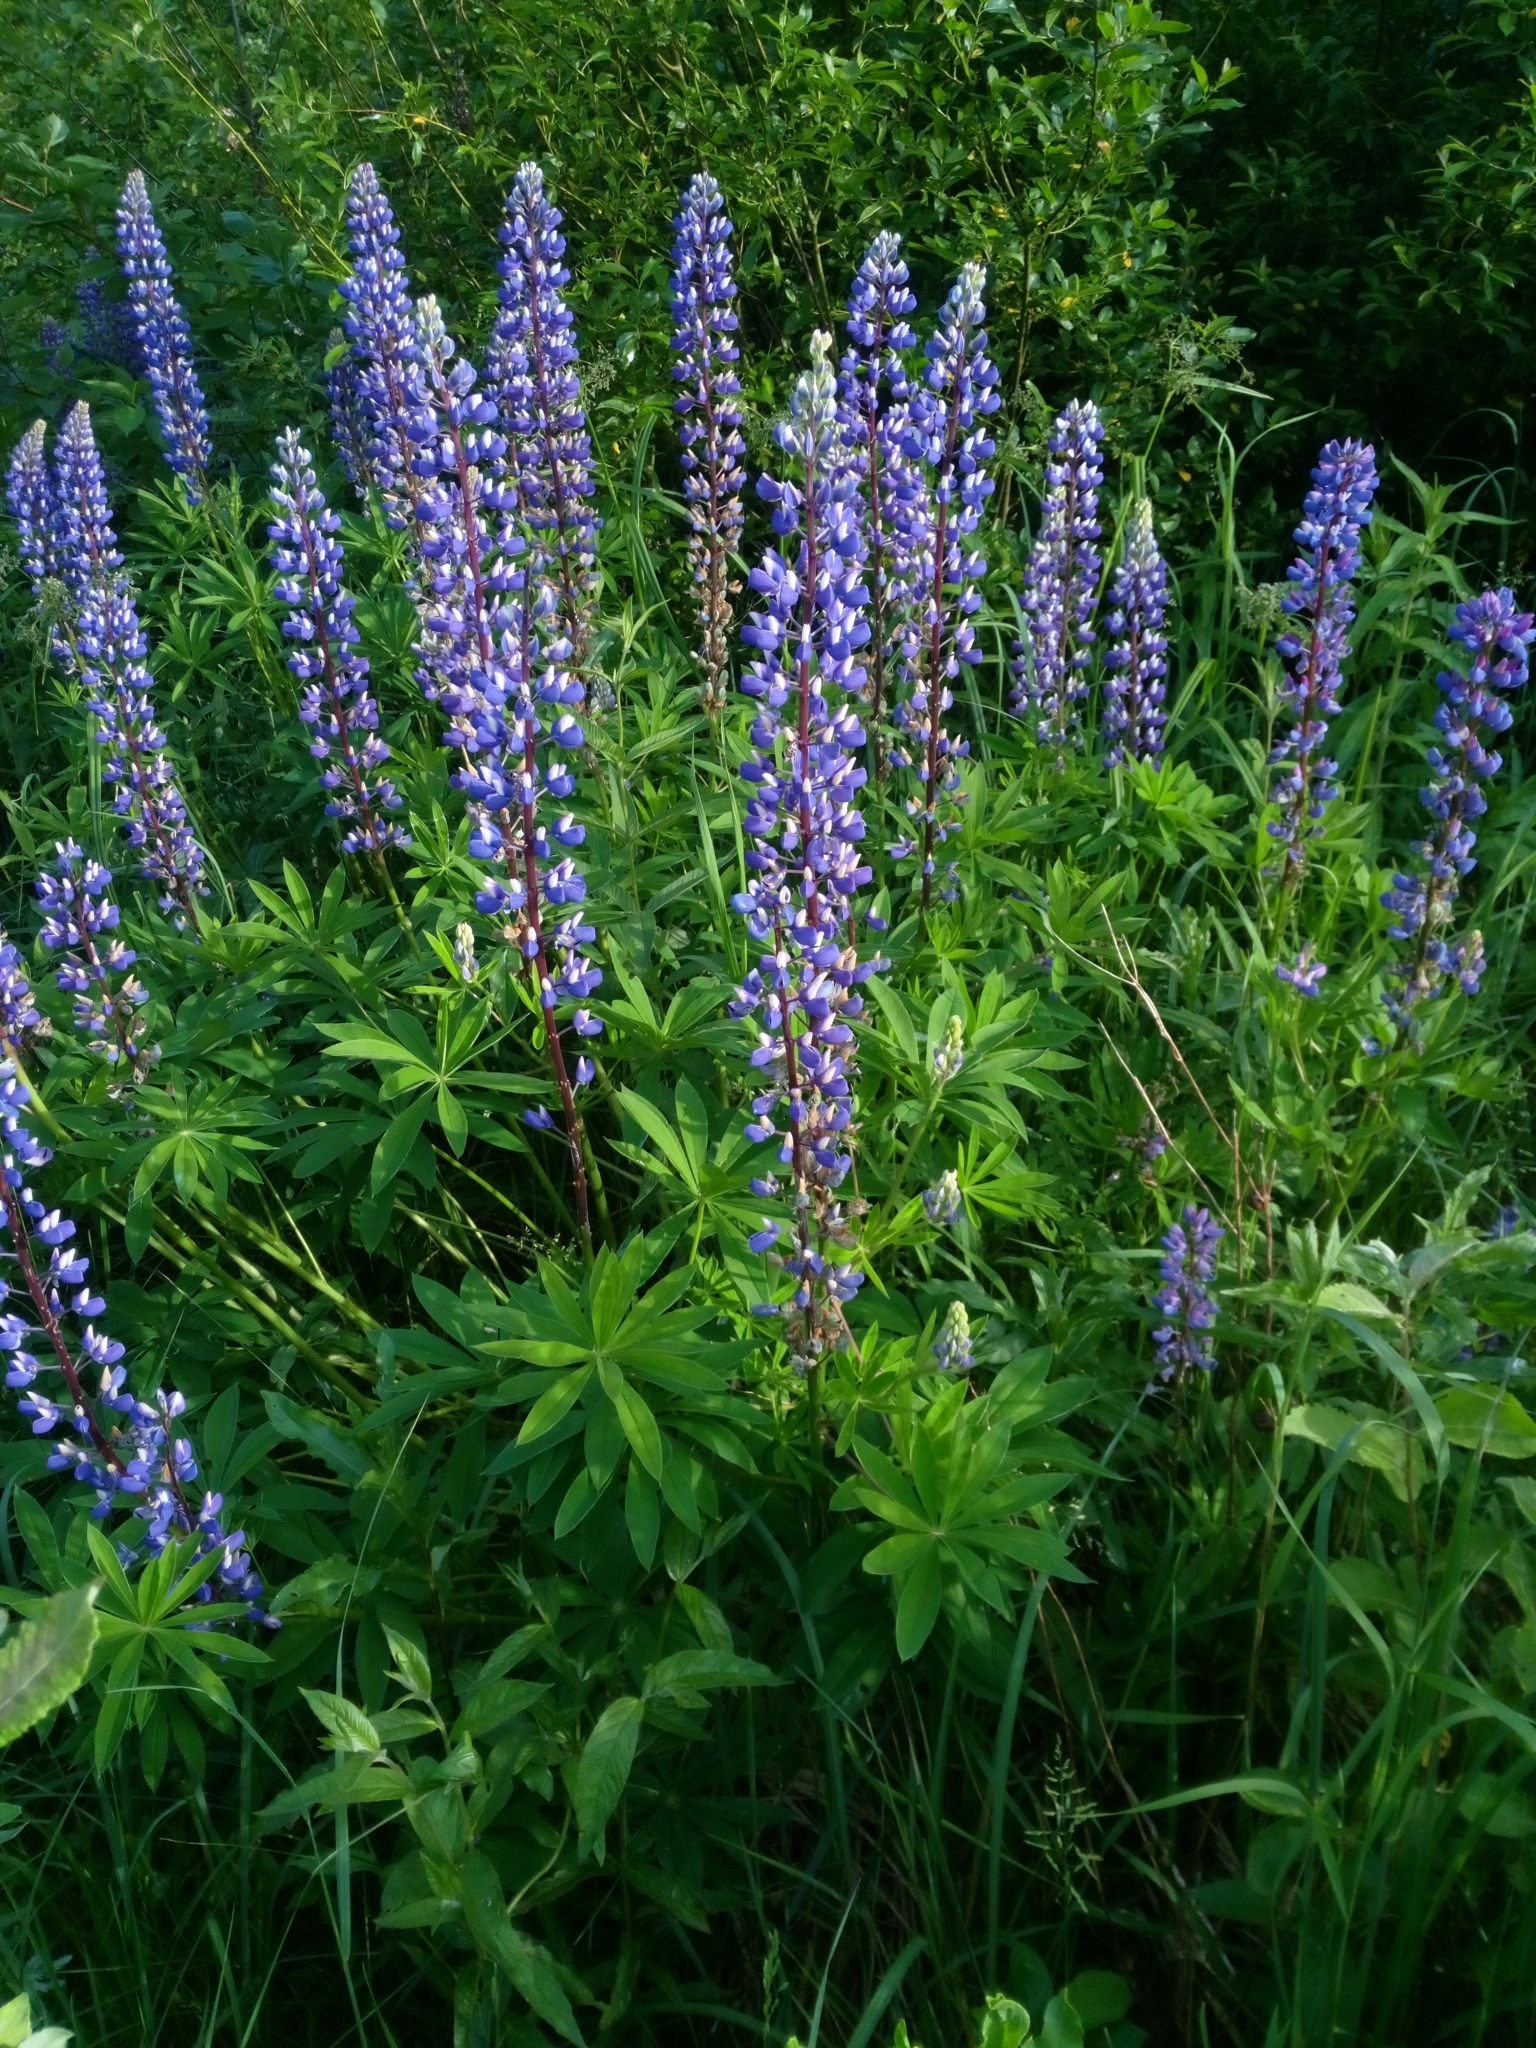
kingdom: Plantae
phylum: Tracheophyta
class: Magnoliopsida
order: Fabales
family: Fabaceae
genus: Lupinus
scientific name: Lupinus polyphyllus
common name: Garden lupin
